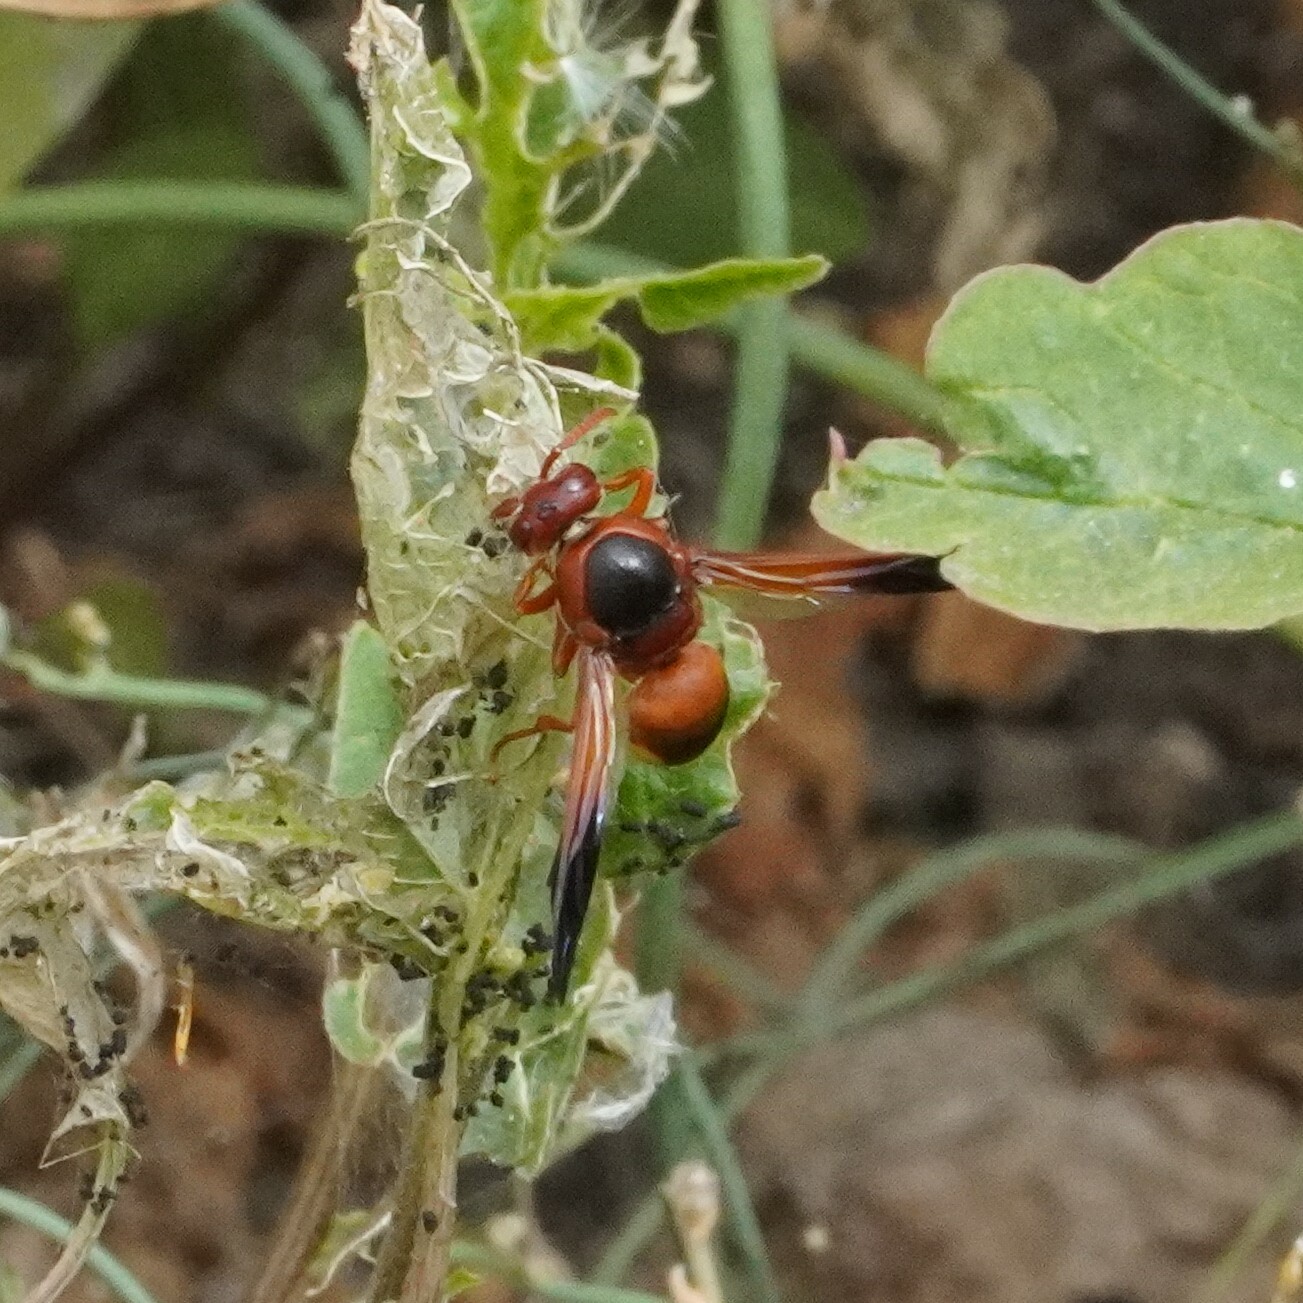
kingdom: Animalia
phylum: Arthropoda
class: Insecta
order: Hymenoptera
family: Eumenidae
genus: Rhynchium
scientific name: Rhynchium oculatum
